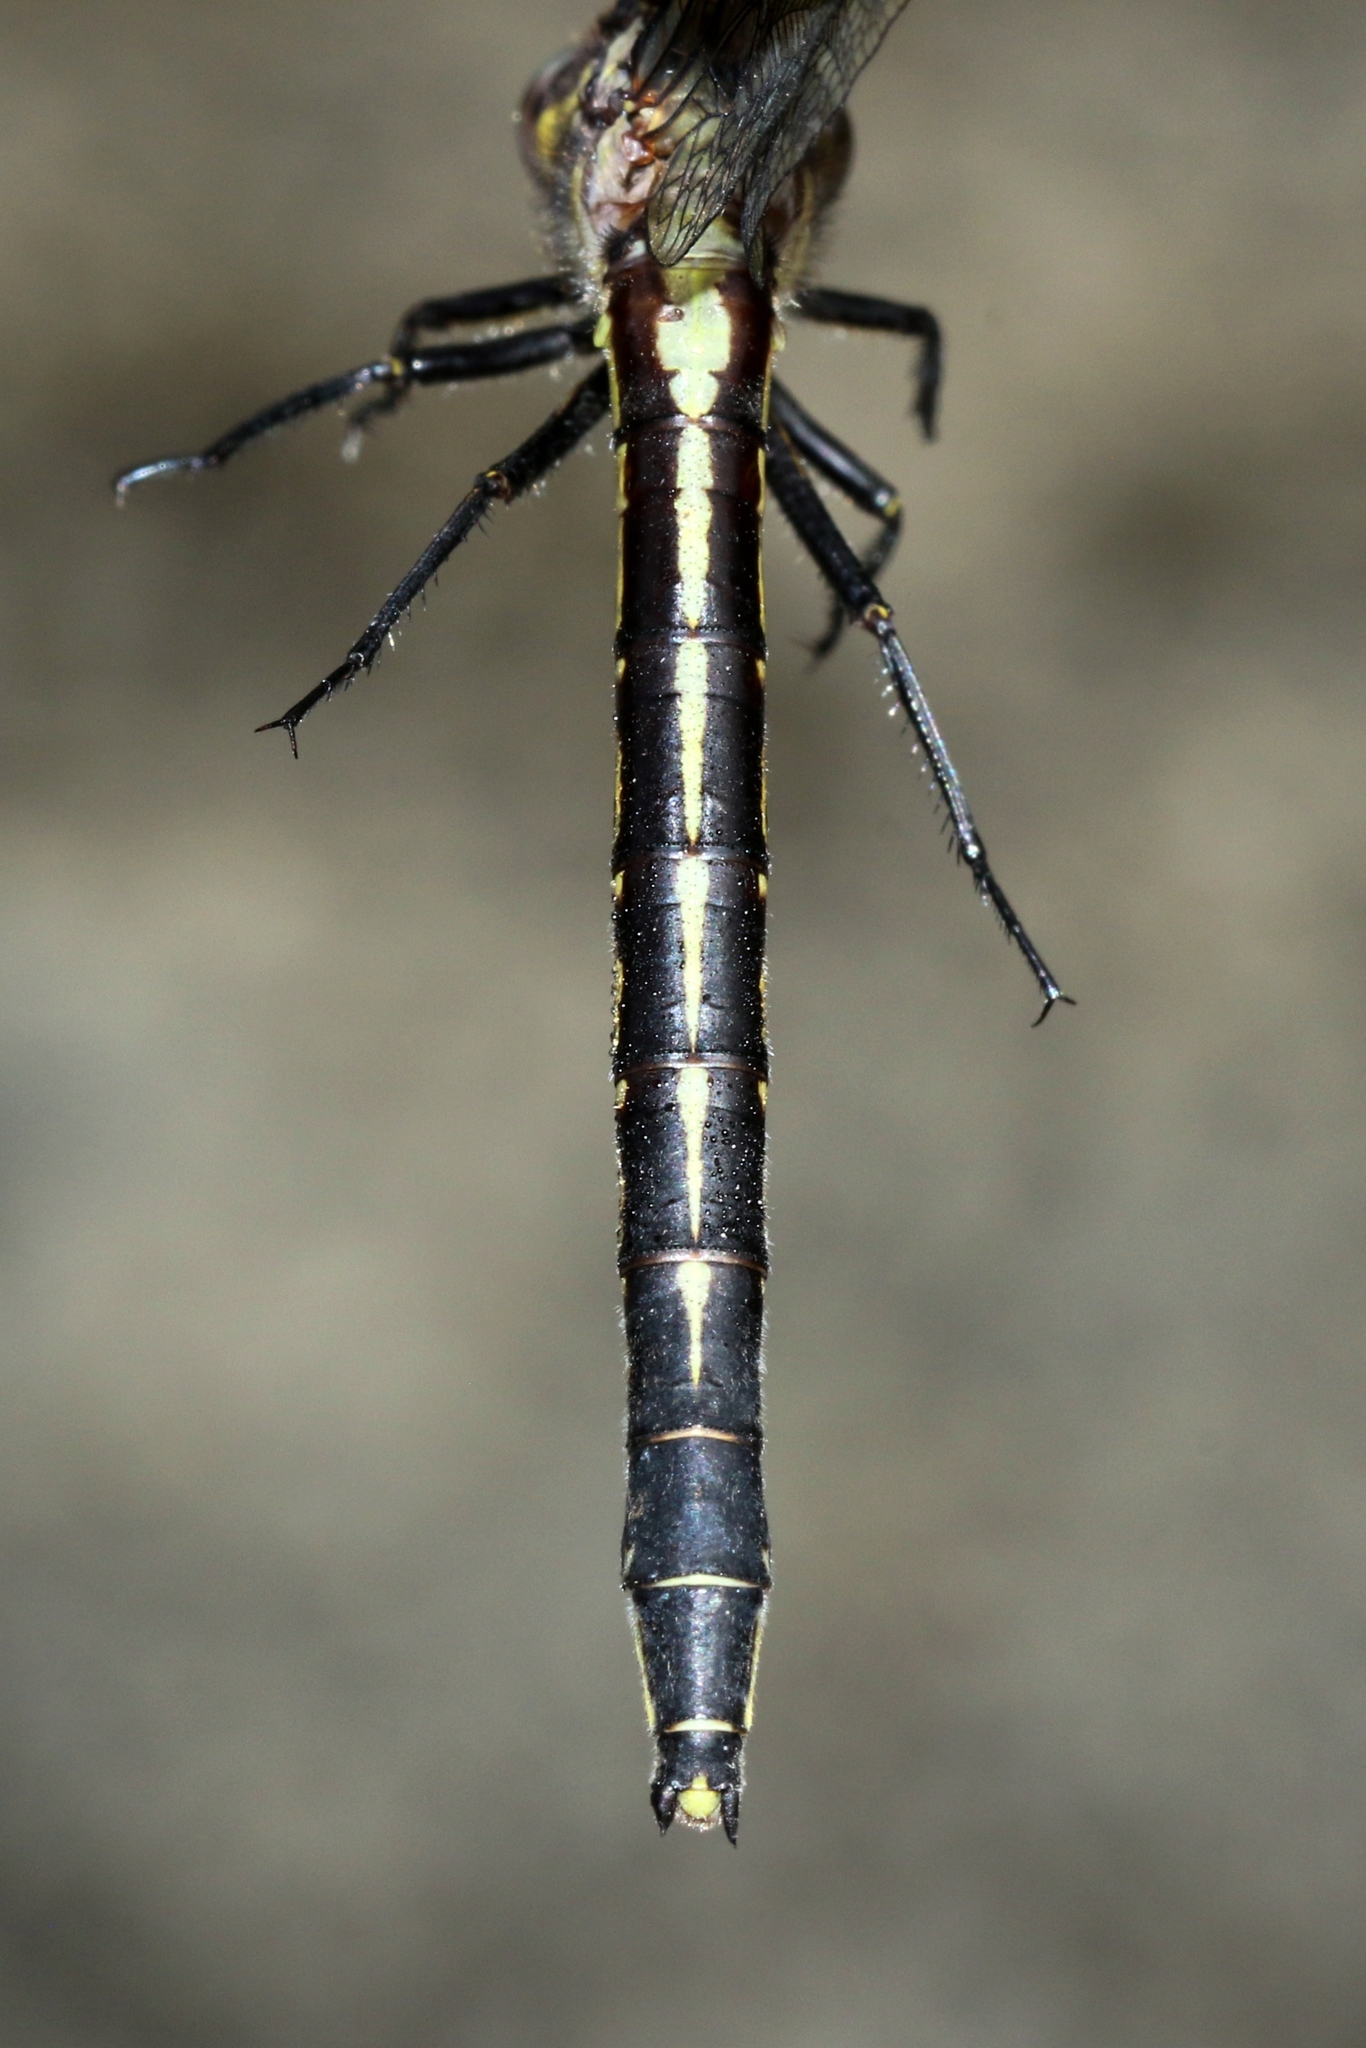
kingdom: Animalia
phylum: Arthropoda
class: Insecta
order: Odonata
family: Gomphidae
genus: Phanogomphus
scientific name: Phanogomphus descriptus
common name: Harpoon clubtail
